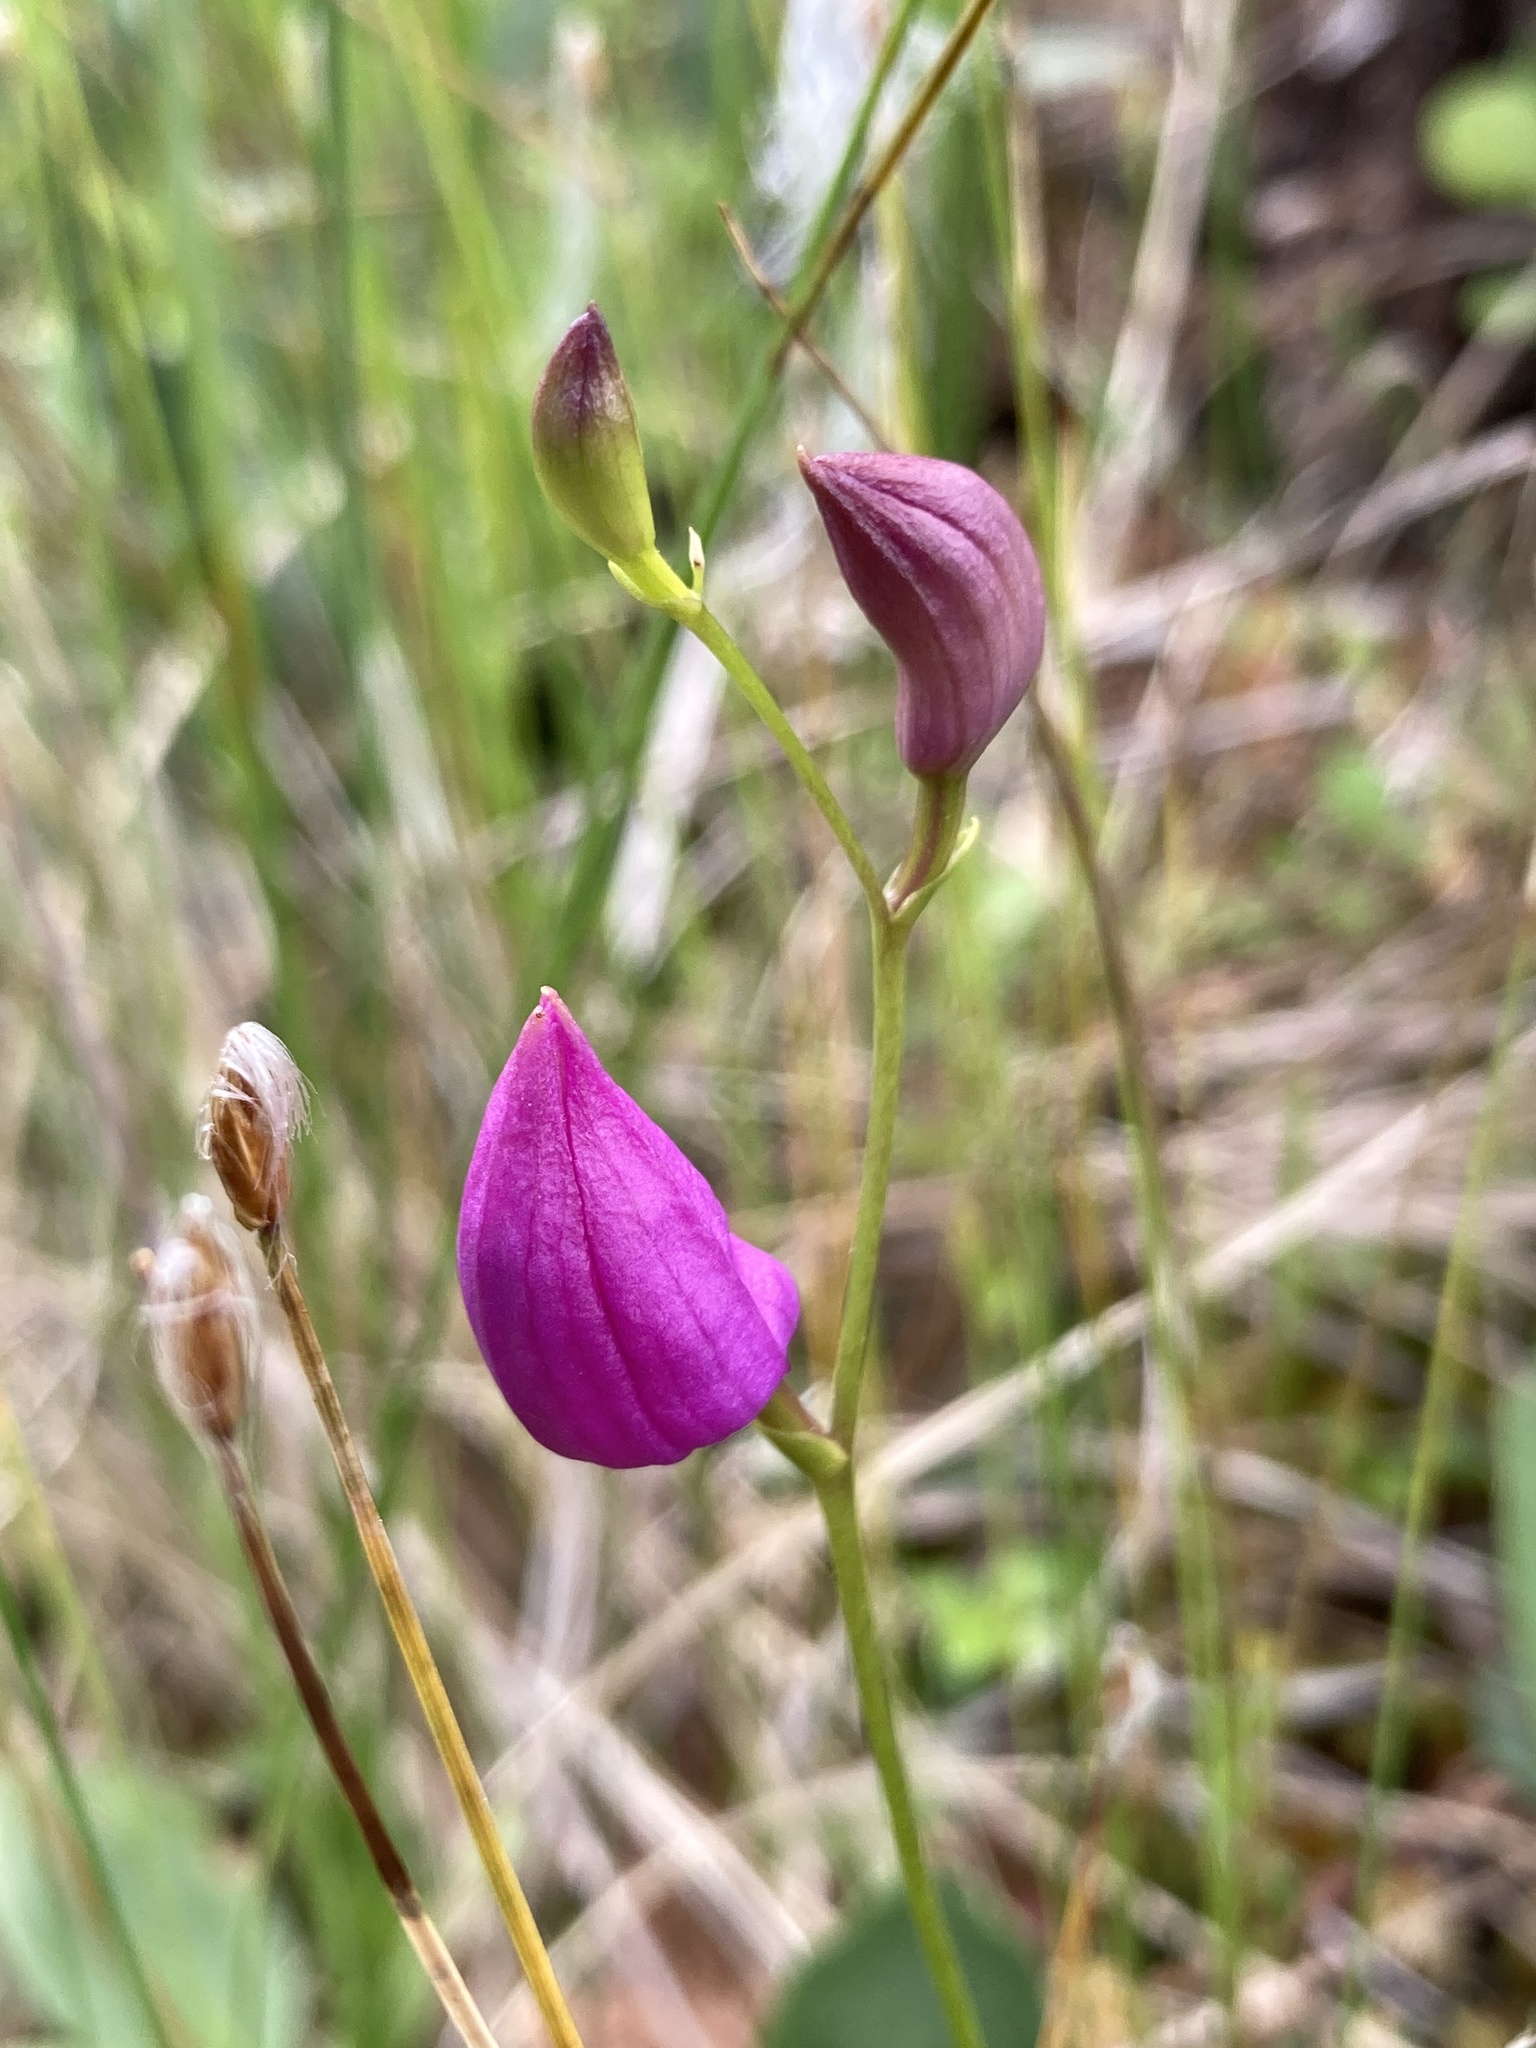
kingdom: Plantae
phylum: Tracheophyta
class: Liliopsida
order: Asparagales
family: Orchidaceae
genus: Calopogon
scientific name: Calopogon tuberosus
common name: Grass-pink
